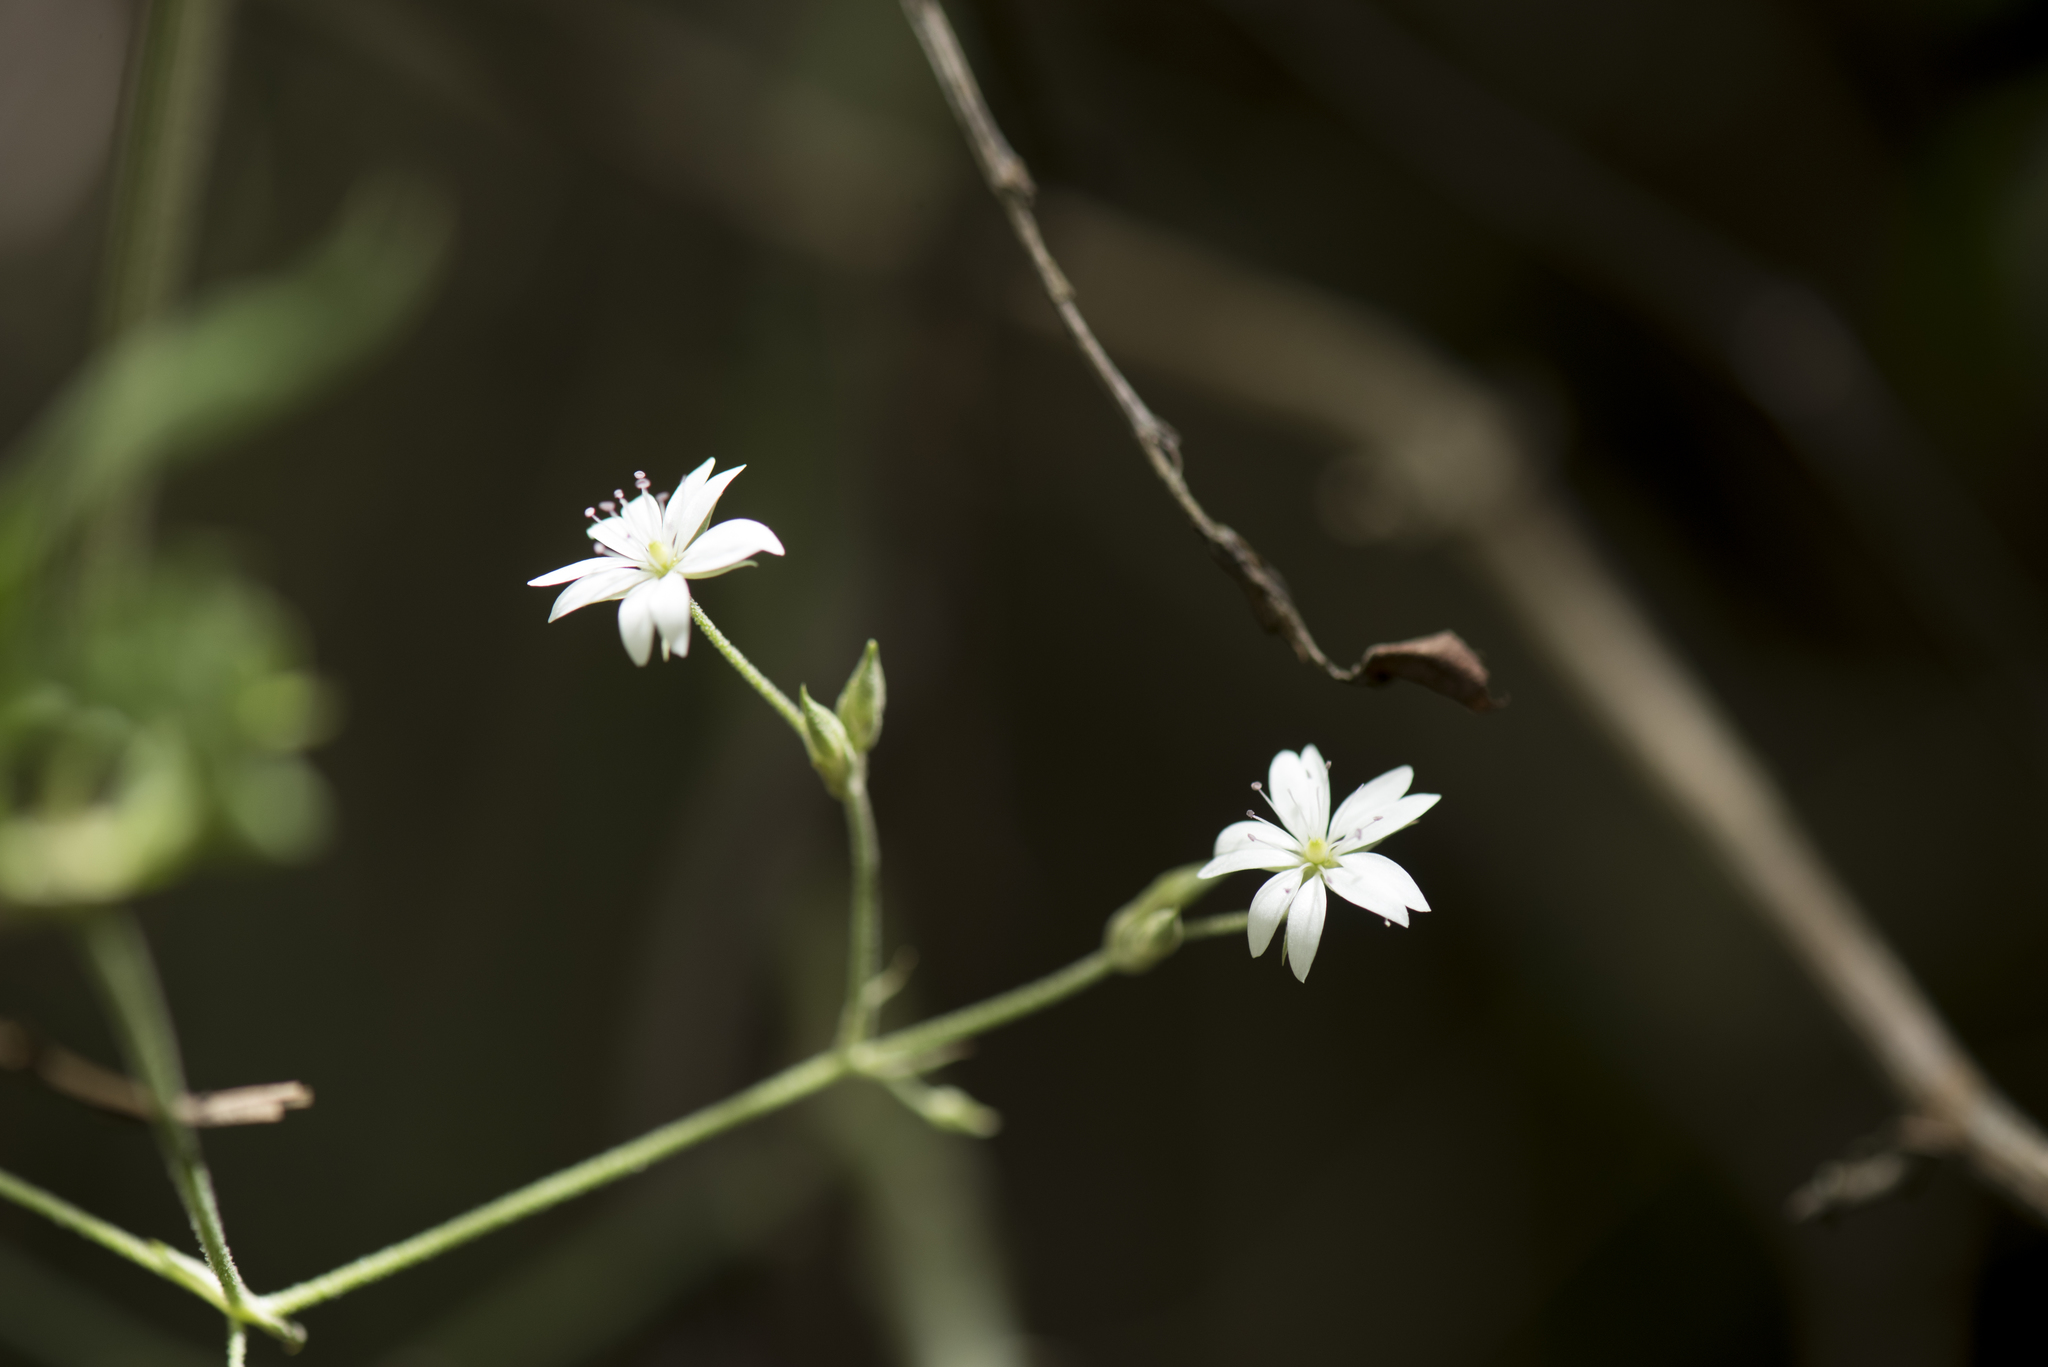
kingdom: Plantae
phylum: Tracheophyta
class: Magnoliopsida
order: Caryophyllales
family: Caryophyllaceae
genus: Cerastium
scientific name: Cerastium morrisonense
